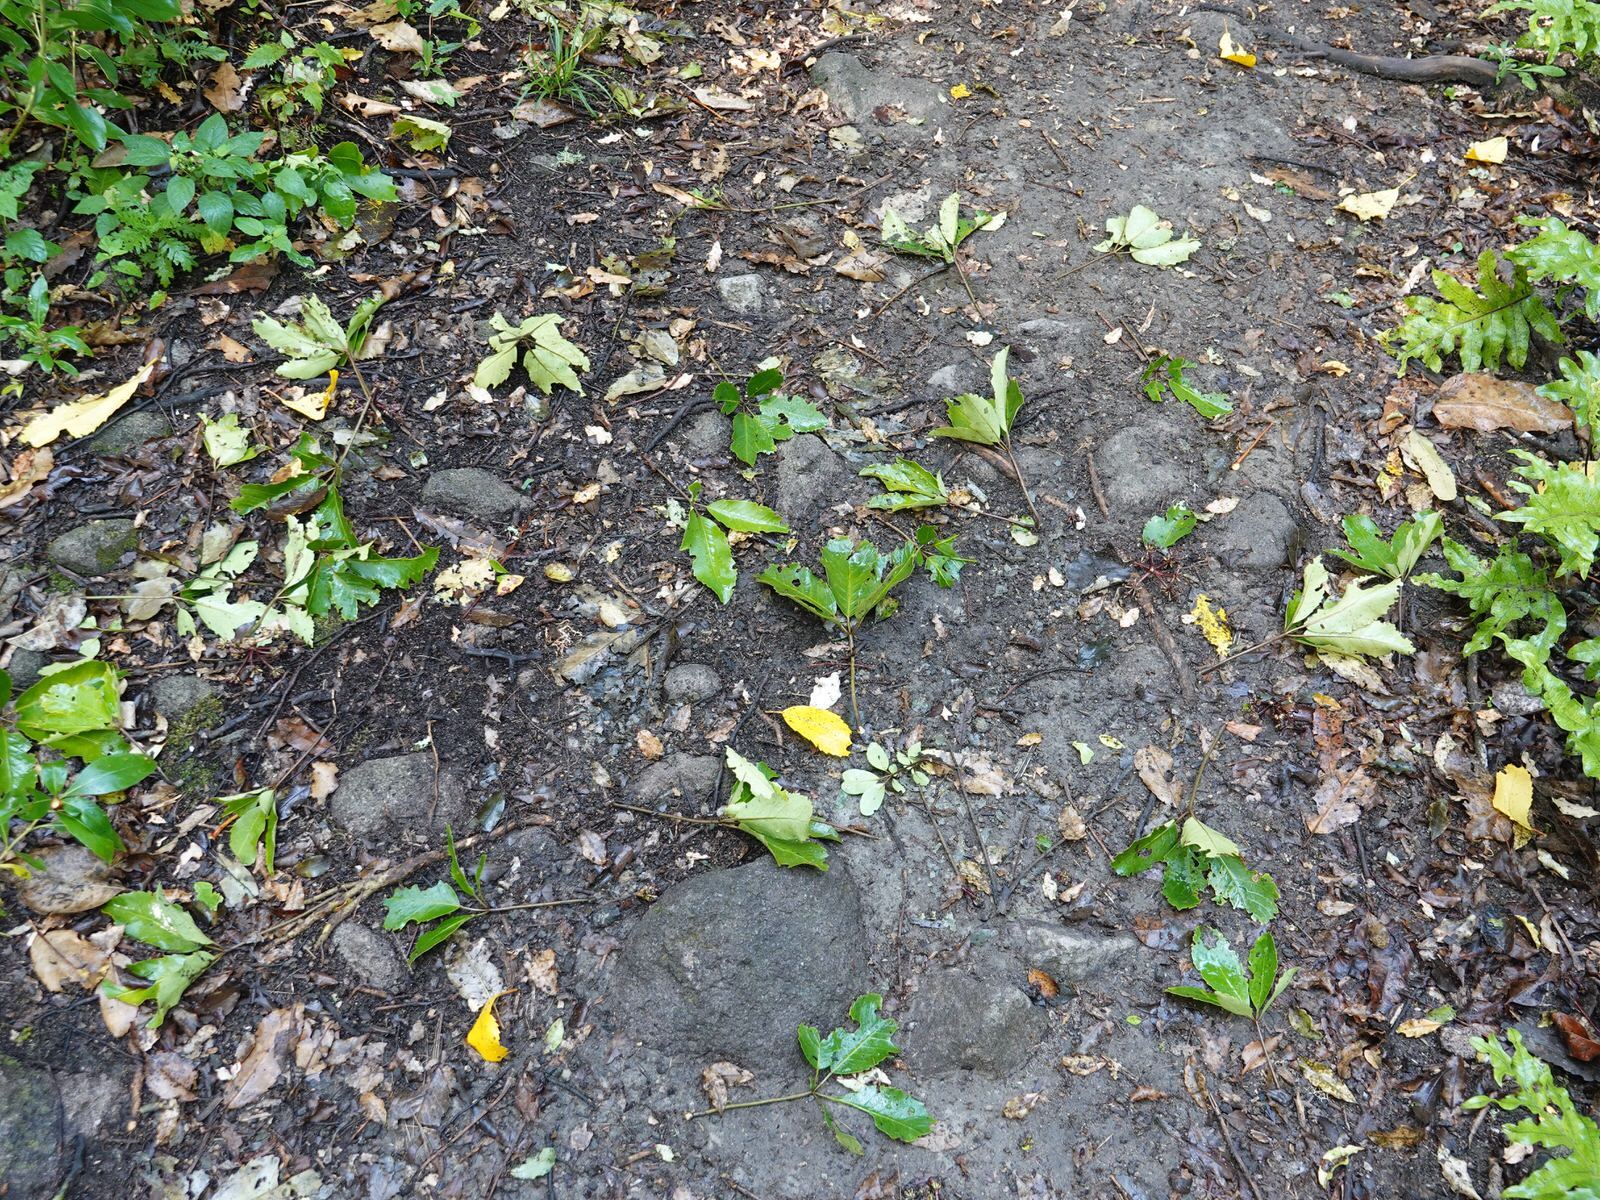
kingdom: Plantae
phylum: Tracheophyta
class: Magnoliopsida
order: Apiales
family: Araliaceae
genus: Neopanax
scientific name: Neopanax arboreus
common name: Five-fingers
